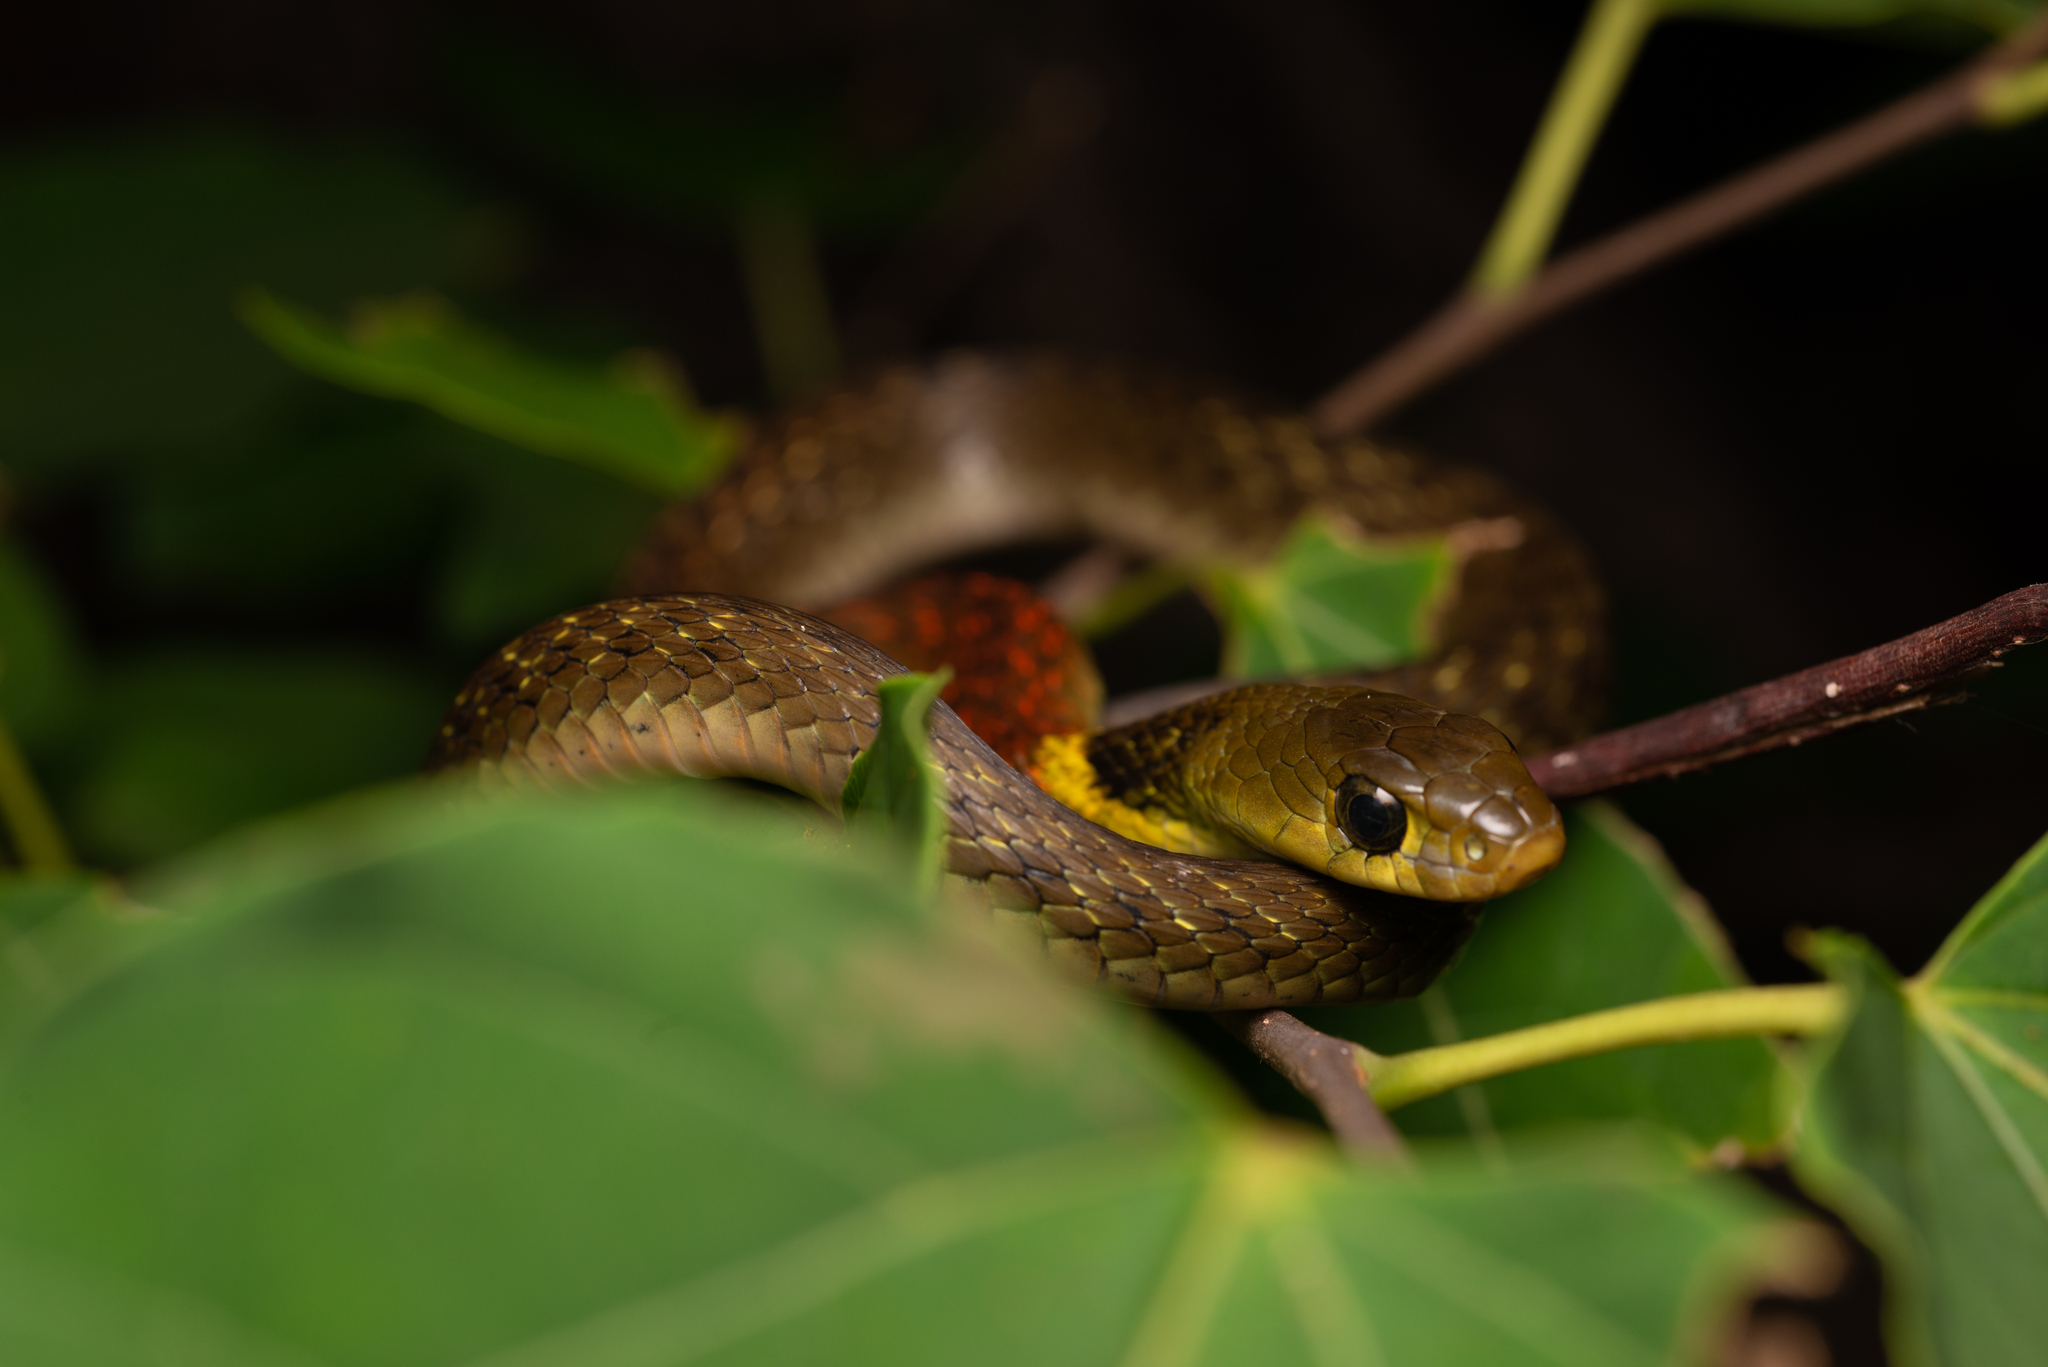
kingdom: Animalia
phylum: Chordata
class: Squamata
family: Colubridae
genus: Rhabdophis
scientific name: Rhabdophis helleri
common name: Heller’s red-necked keelback
